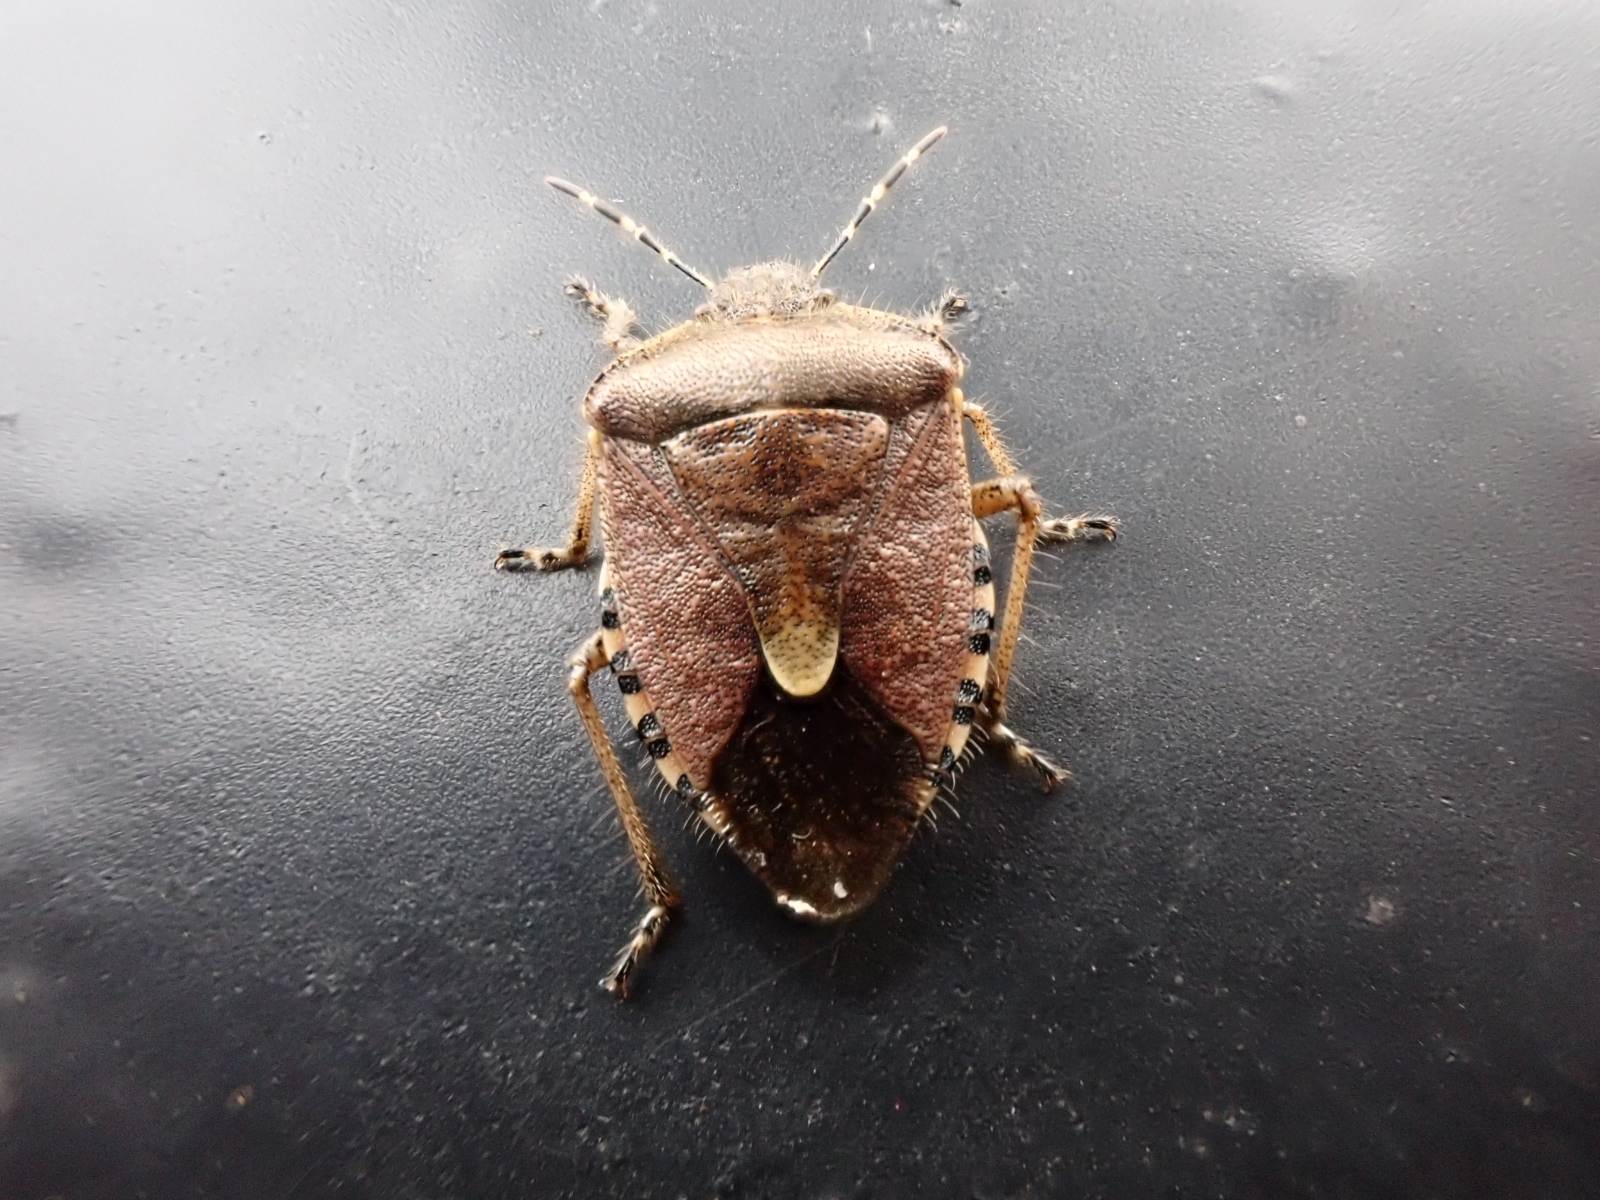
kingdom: Animalia
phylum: Arthropoda
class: Insecta
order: Hemiptera
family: Pentatomidae
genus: Dolycoris
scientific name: Dolycoris baccarum
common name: Sloe bug
